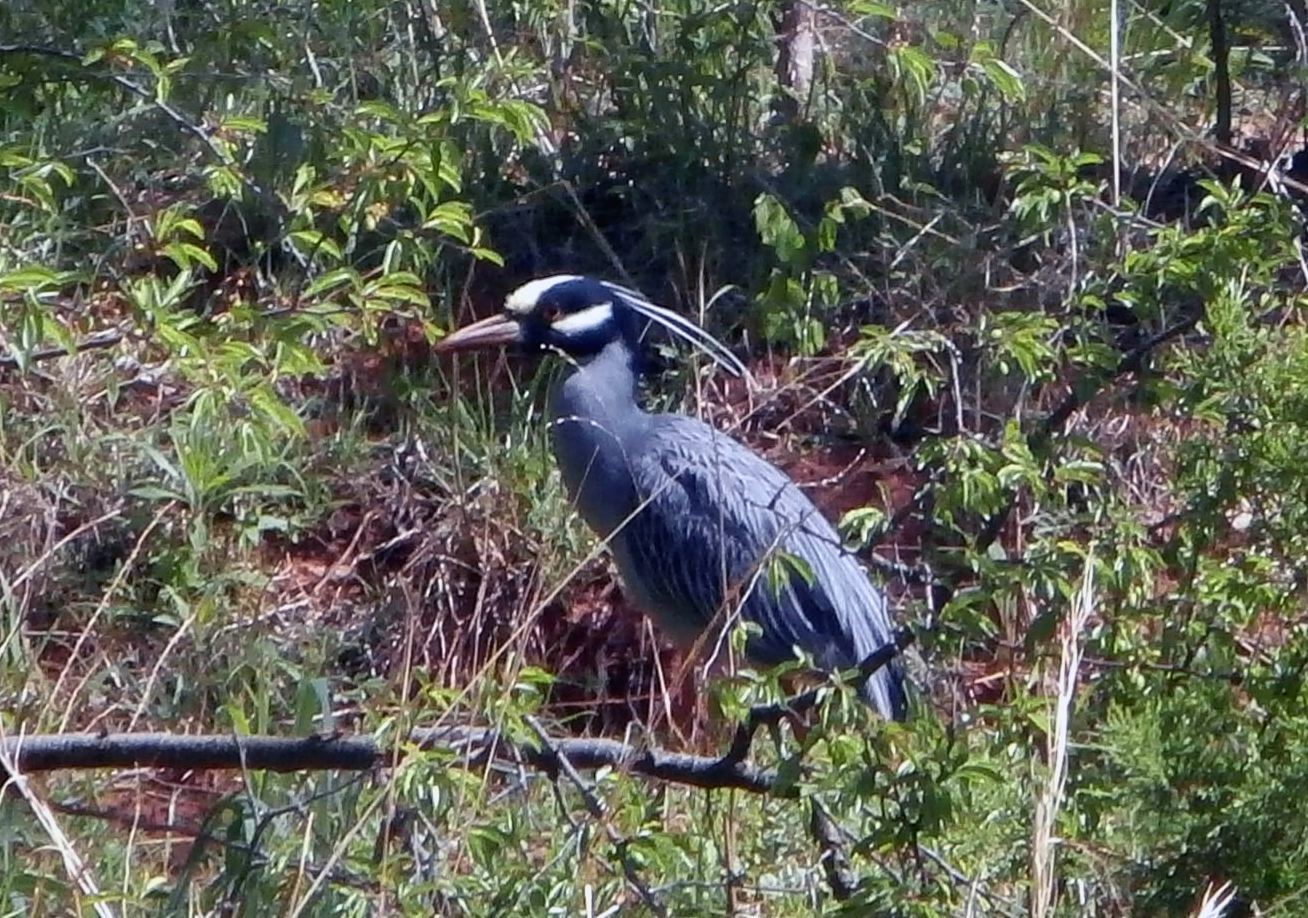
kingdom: Animalia
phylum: Chordata
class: Aves
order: Pelecaniformes
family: Ardeidae
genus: Nyctanassa
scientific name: Nyctanassa violacea
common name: Yellow-crowned night heron
